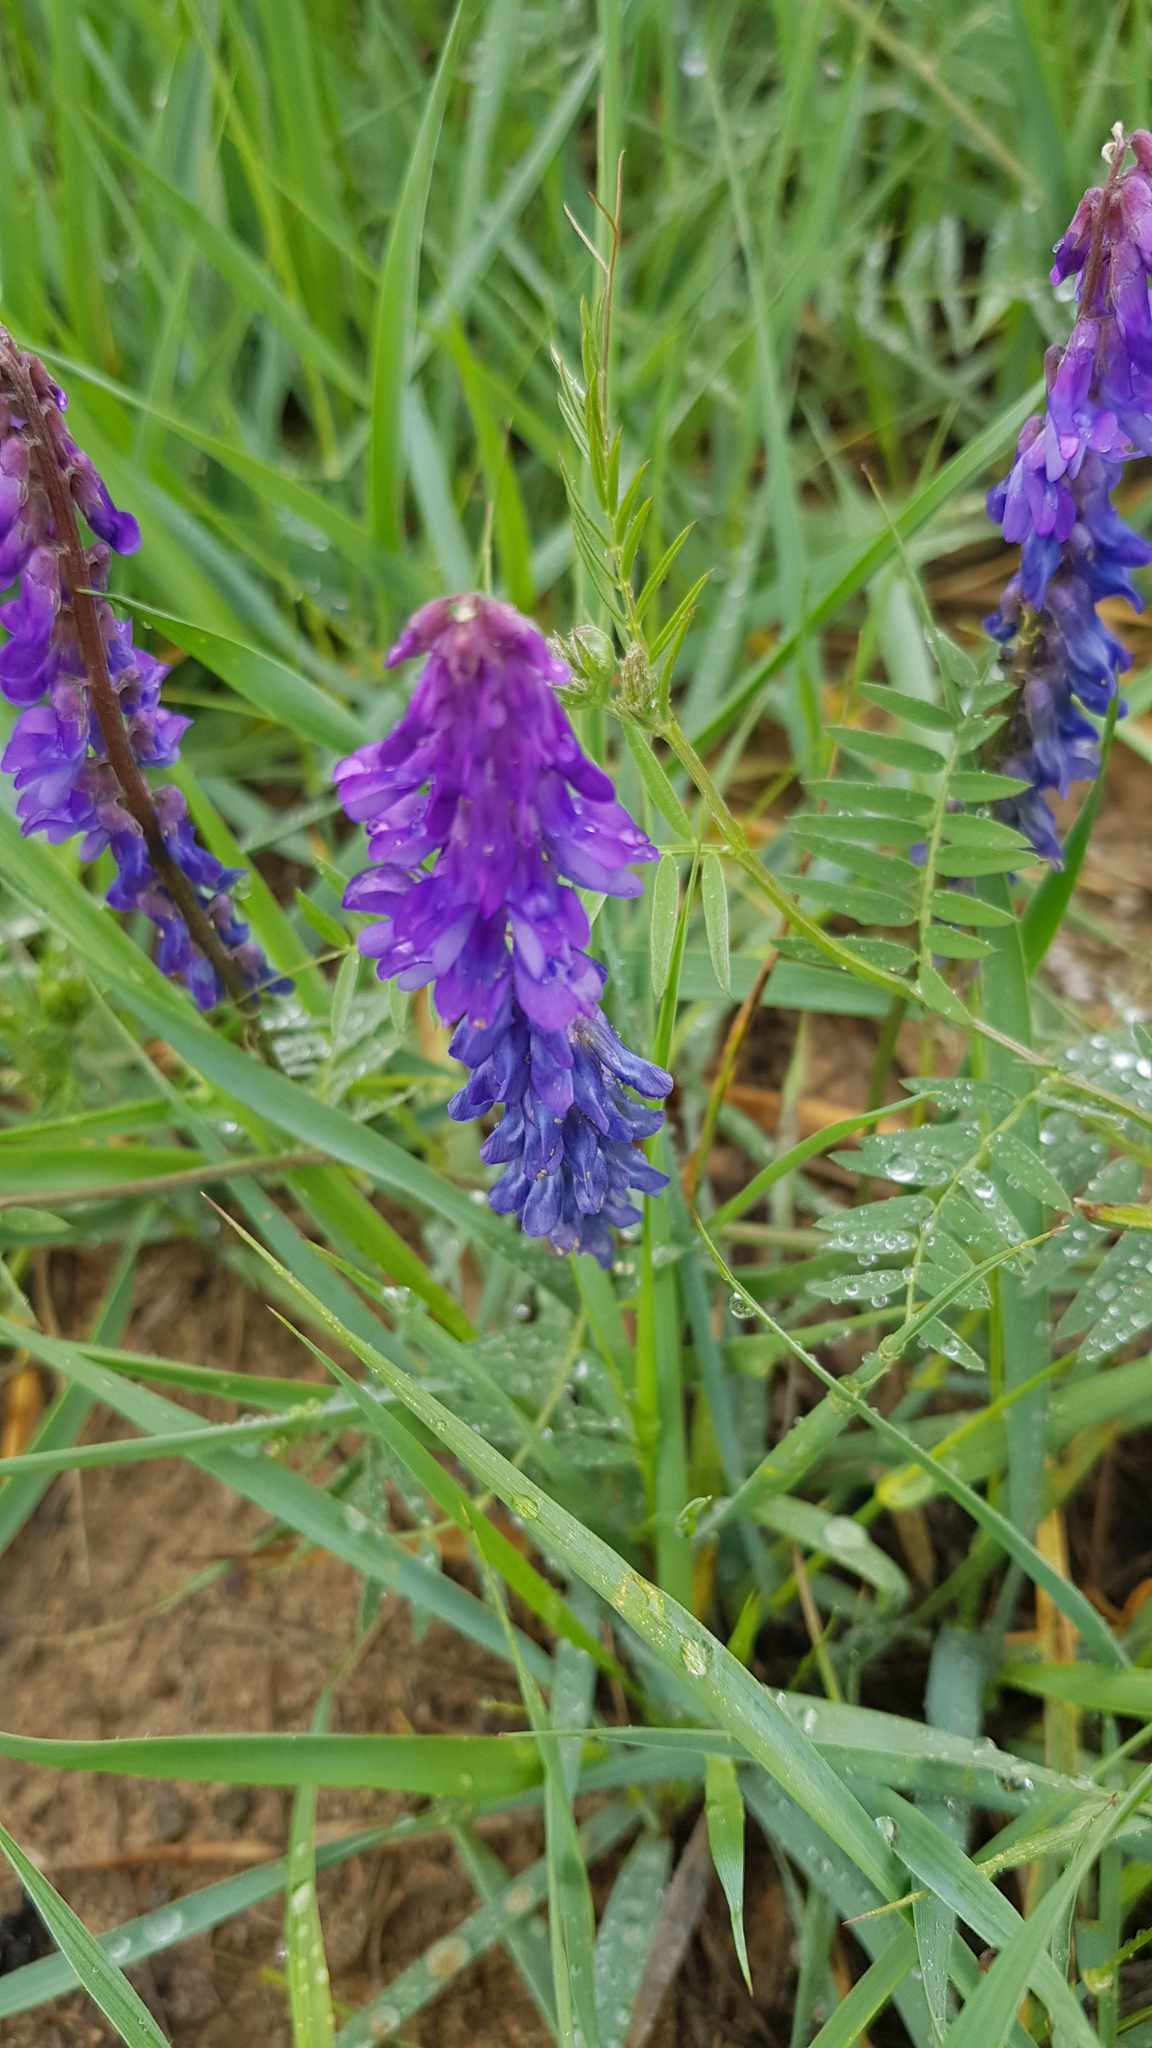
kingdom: Plantae
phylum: Tracheophyta
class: Magnoliopsida
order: Fabales
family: Fabaceae
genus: Vicia
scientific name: Vicia cracca
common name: Bird vetch
